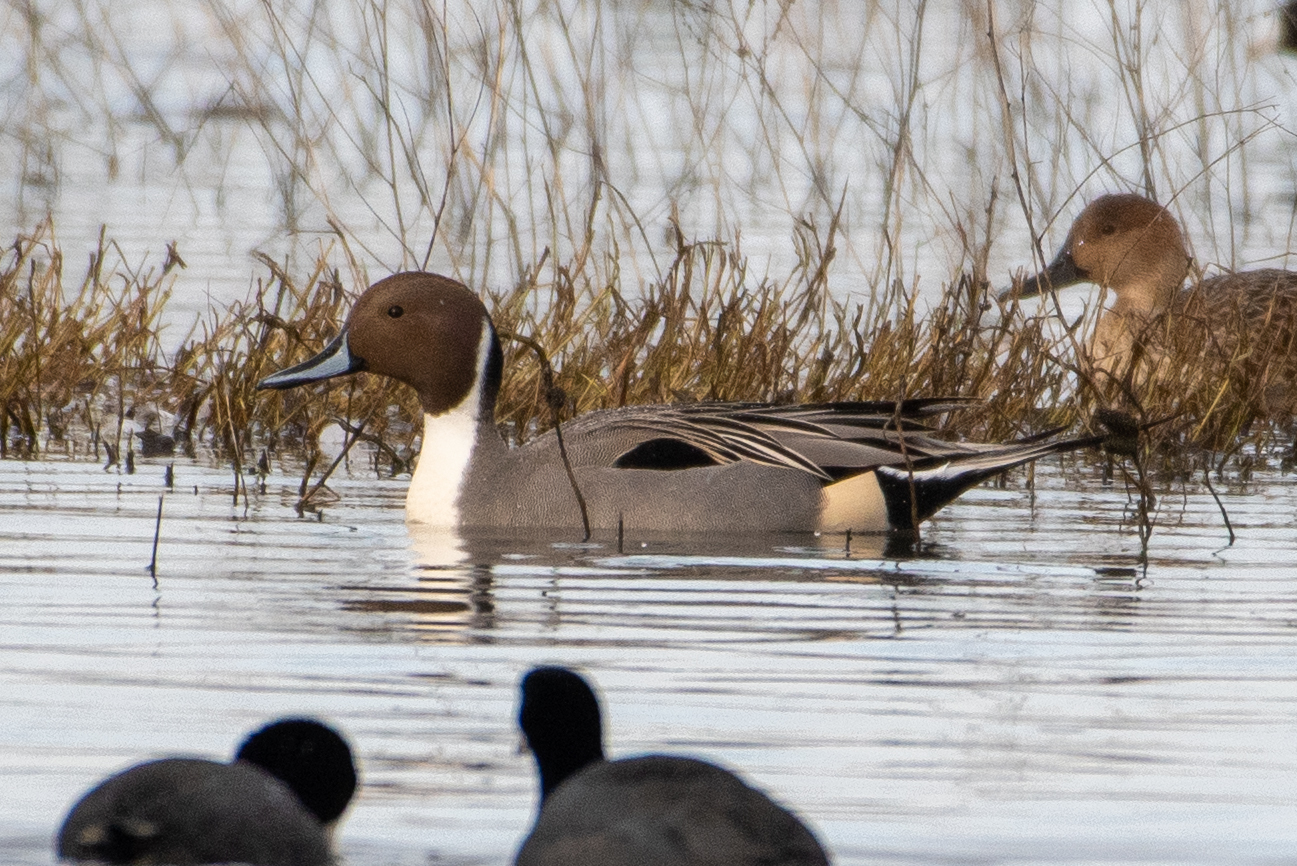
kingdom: Animalia
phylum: Chordata
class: Aves
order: Anseriformes
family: Anatidae
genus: Anas
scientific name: Anas acuta
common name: Northern pintail
